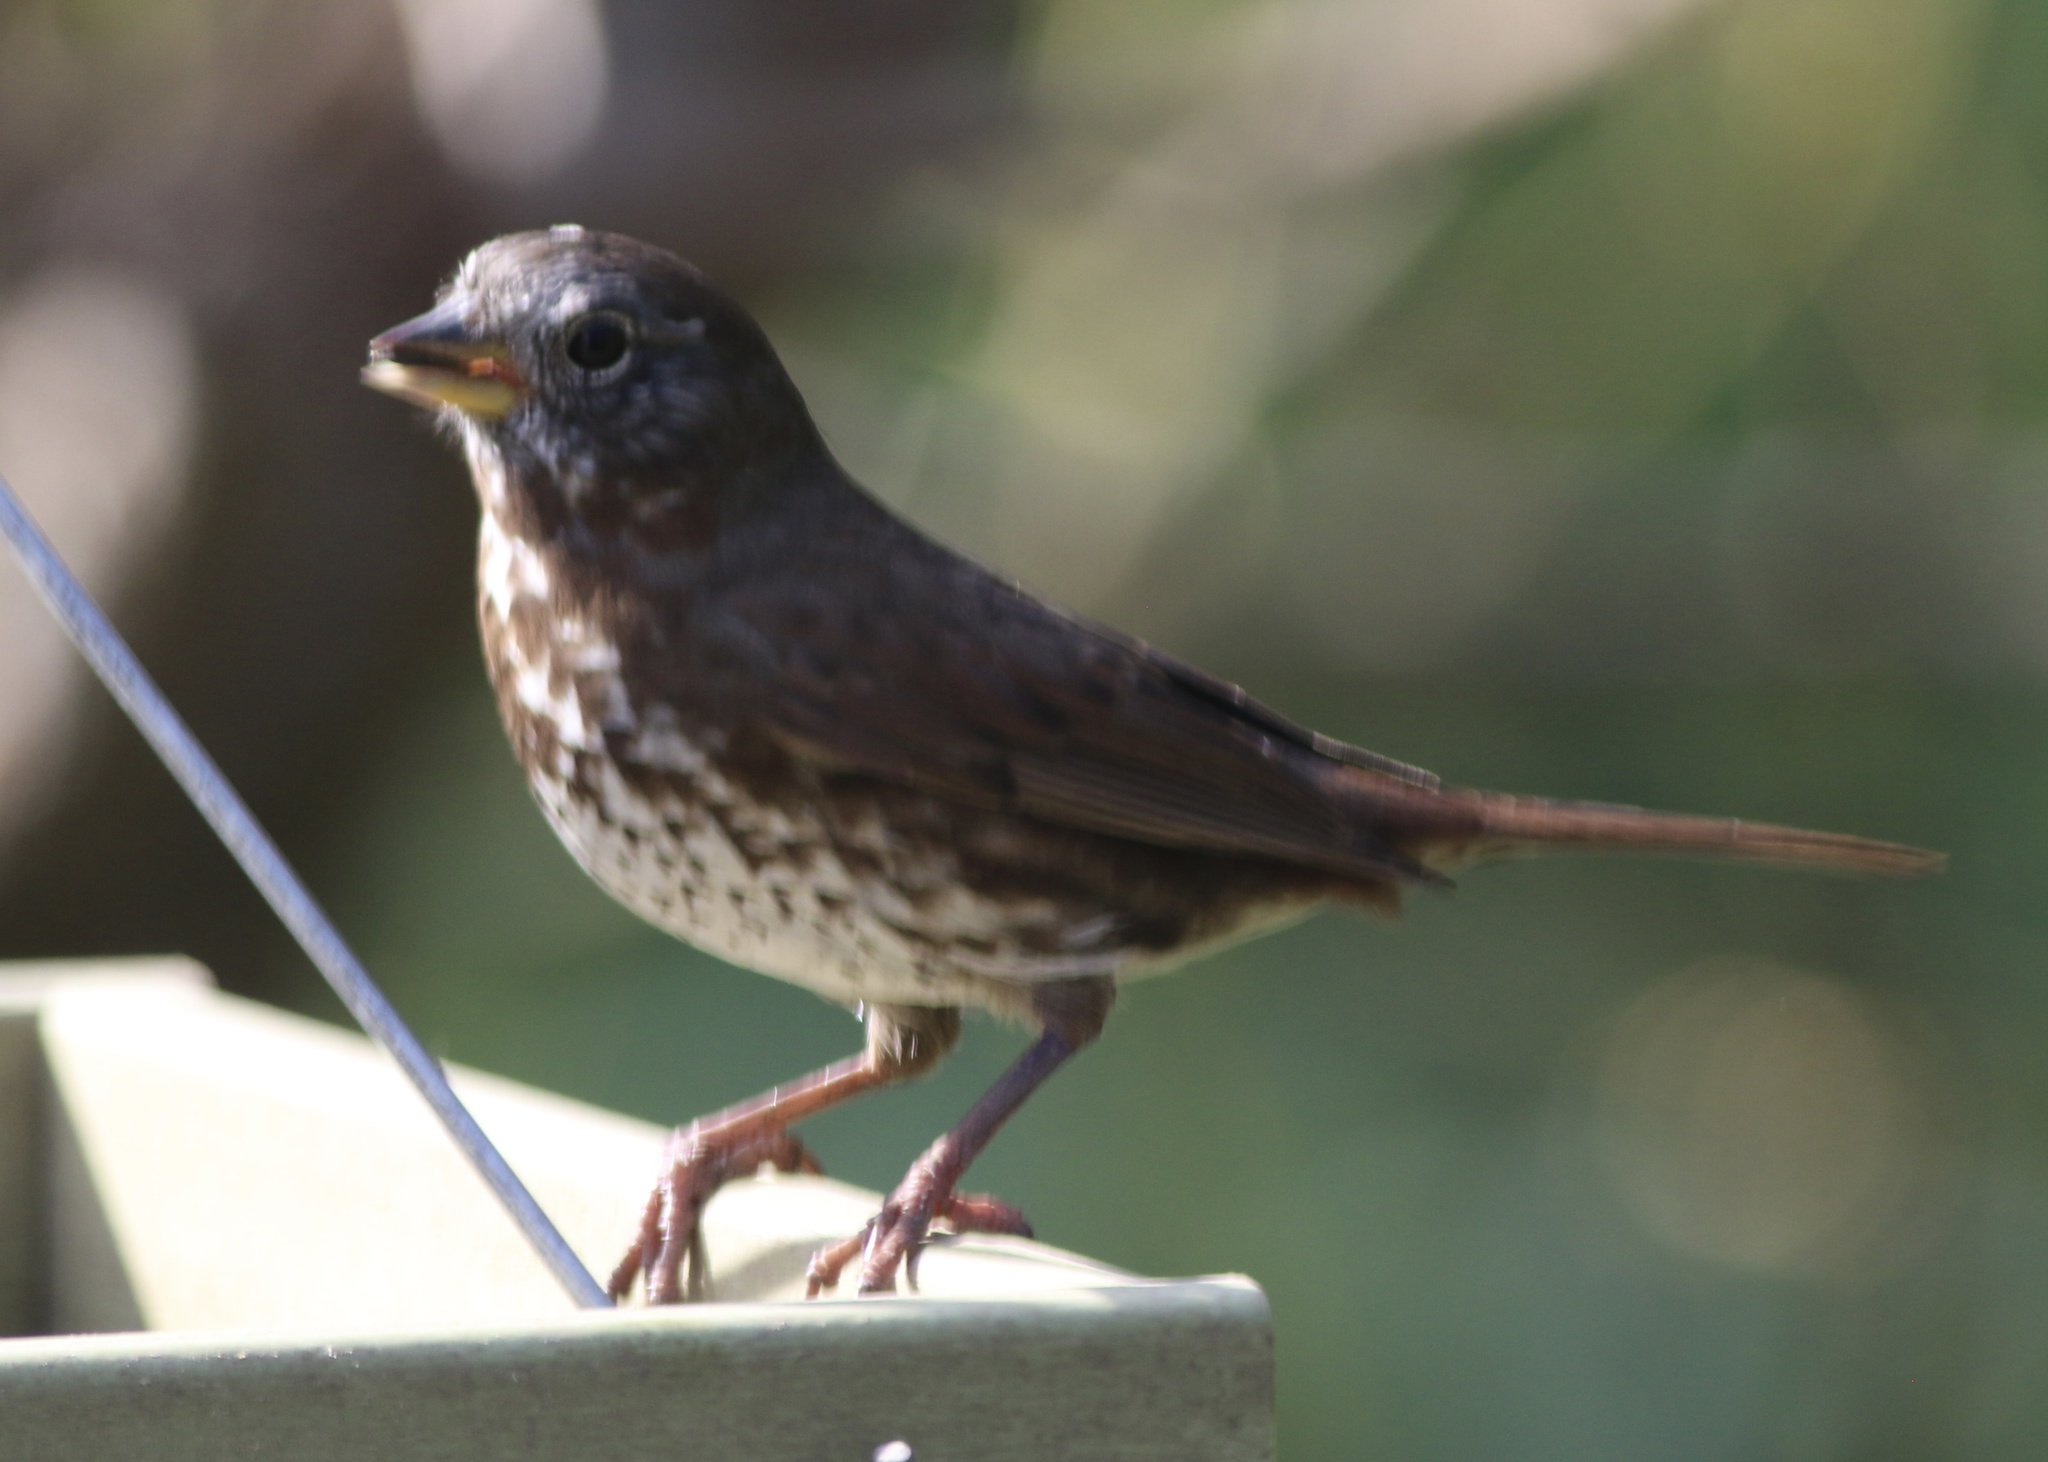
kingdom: Animalia
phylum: Chordata
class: Aves
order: Passeriformes
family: Passerellidae
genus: Passerella
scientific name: Passerella iliaca
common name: Fox sparrow
